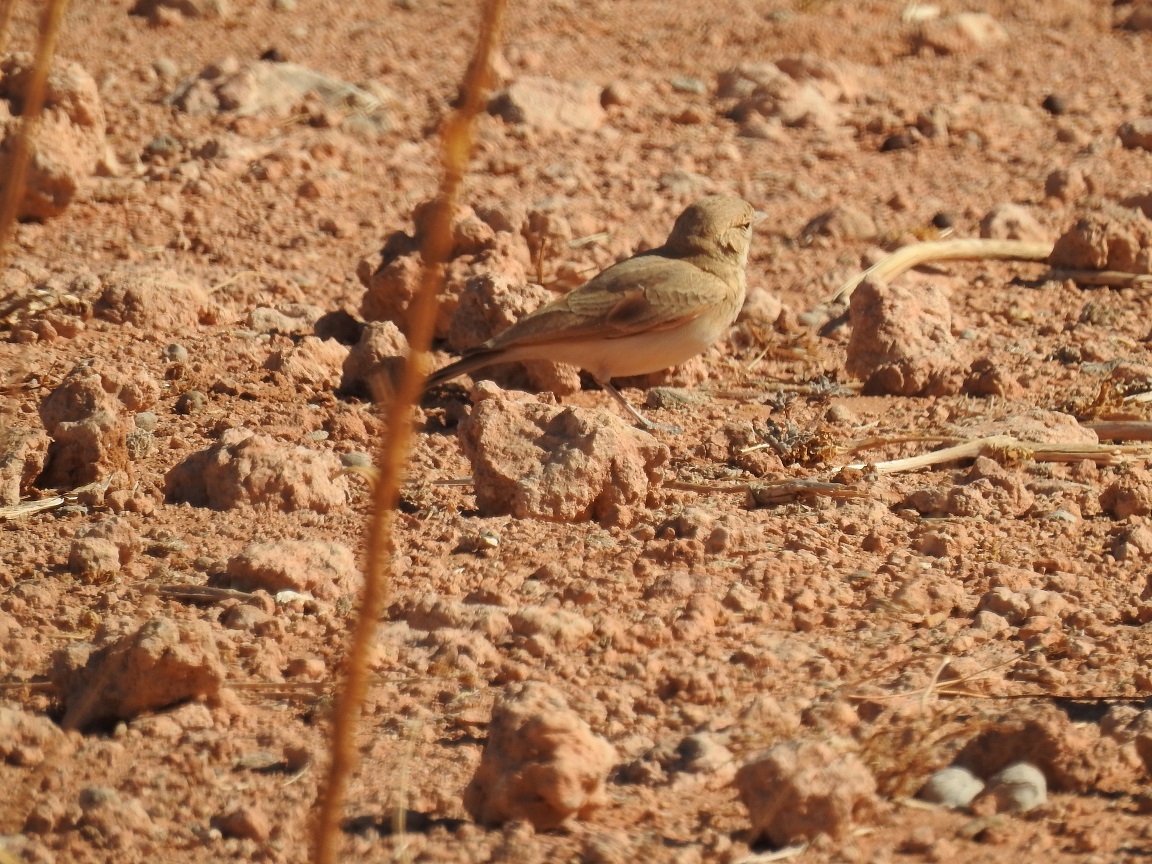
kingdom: Animalia
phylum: Chordata
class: Aves
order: Passeriformes
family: Alaudidae
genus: Ammomanes
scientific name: Ammomanes deserti
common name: Desert lark
